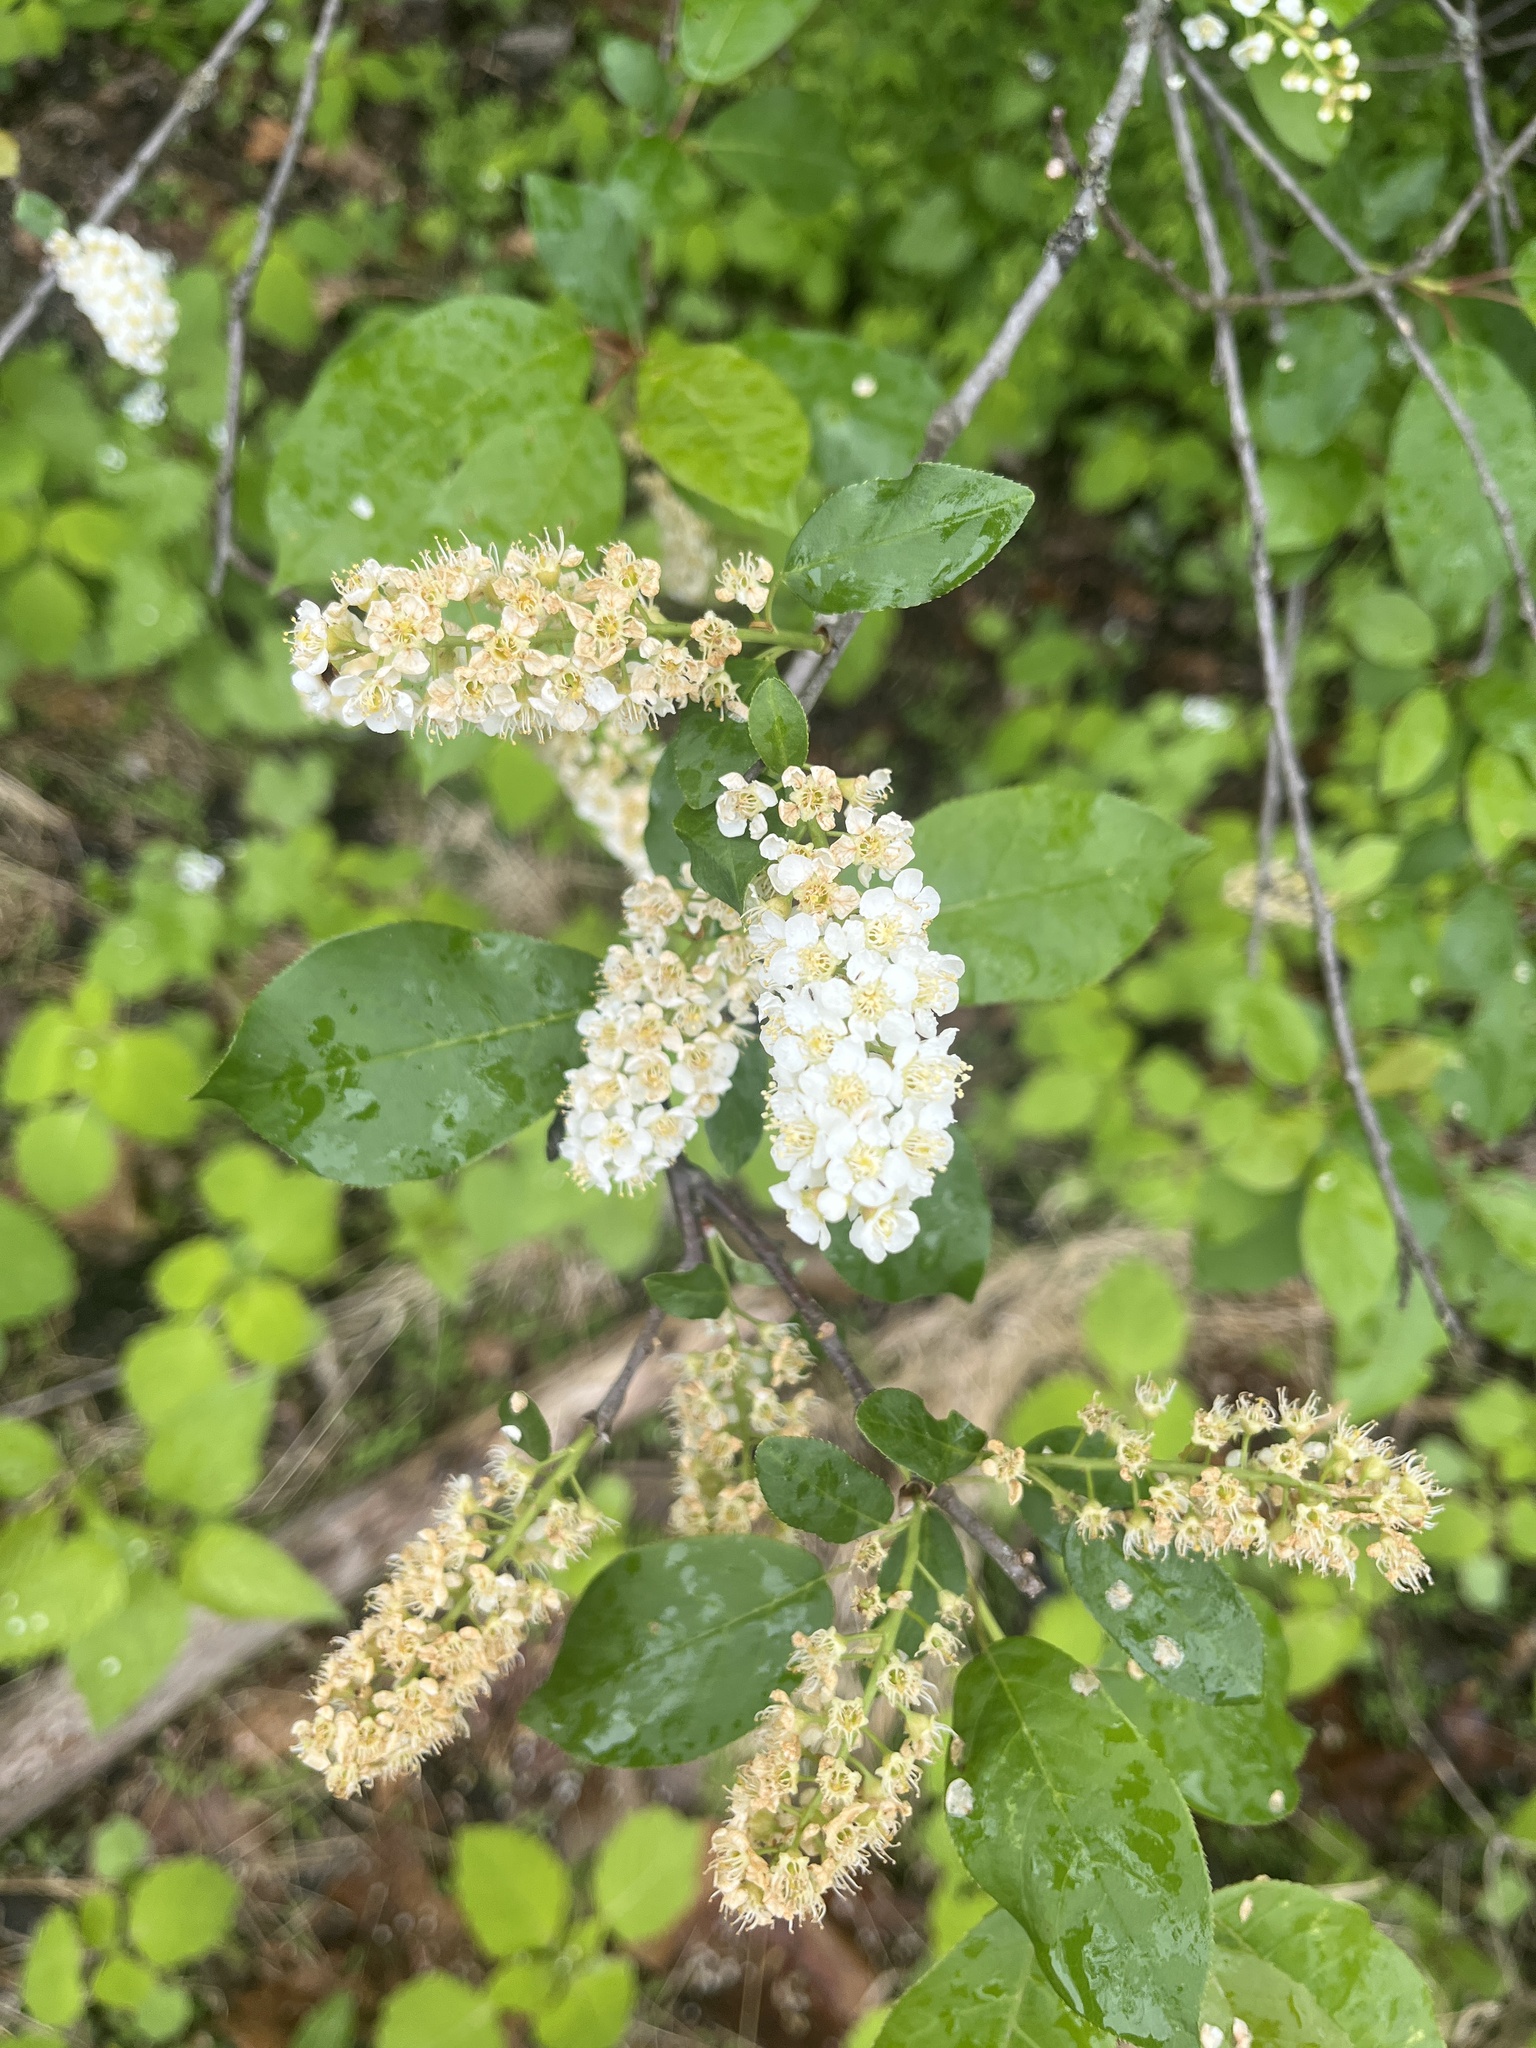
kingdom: Plantae
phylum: Tracheophyta
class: Magnoliopsida
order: Rosales
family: Rosaceae
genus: Prunus
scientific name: Prunus virginiana
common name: Chokecherry
